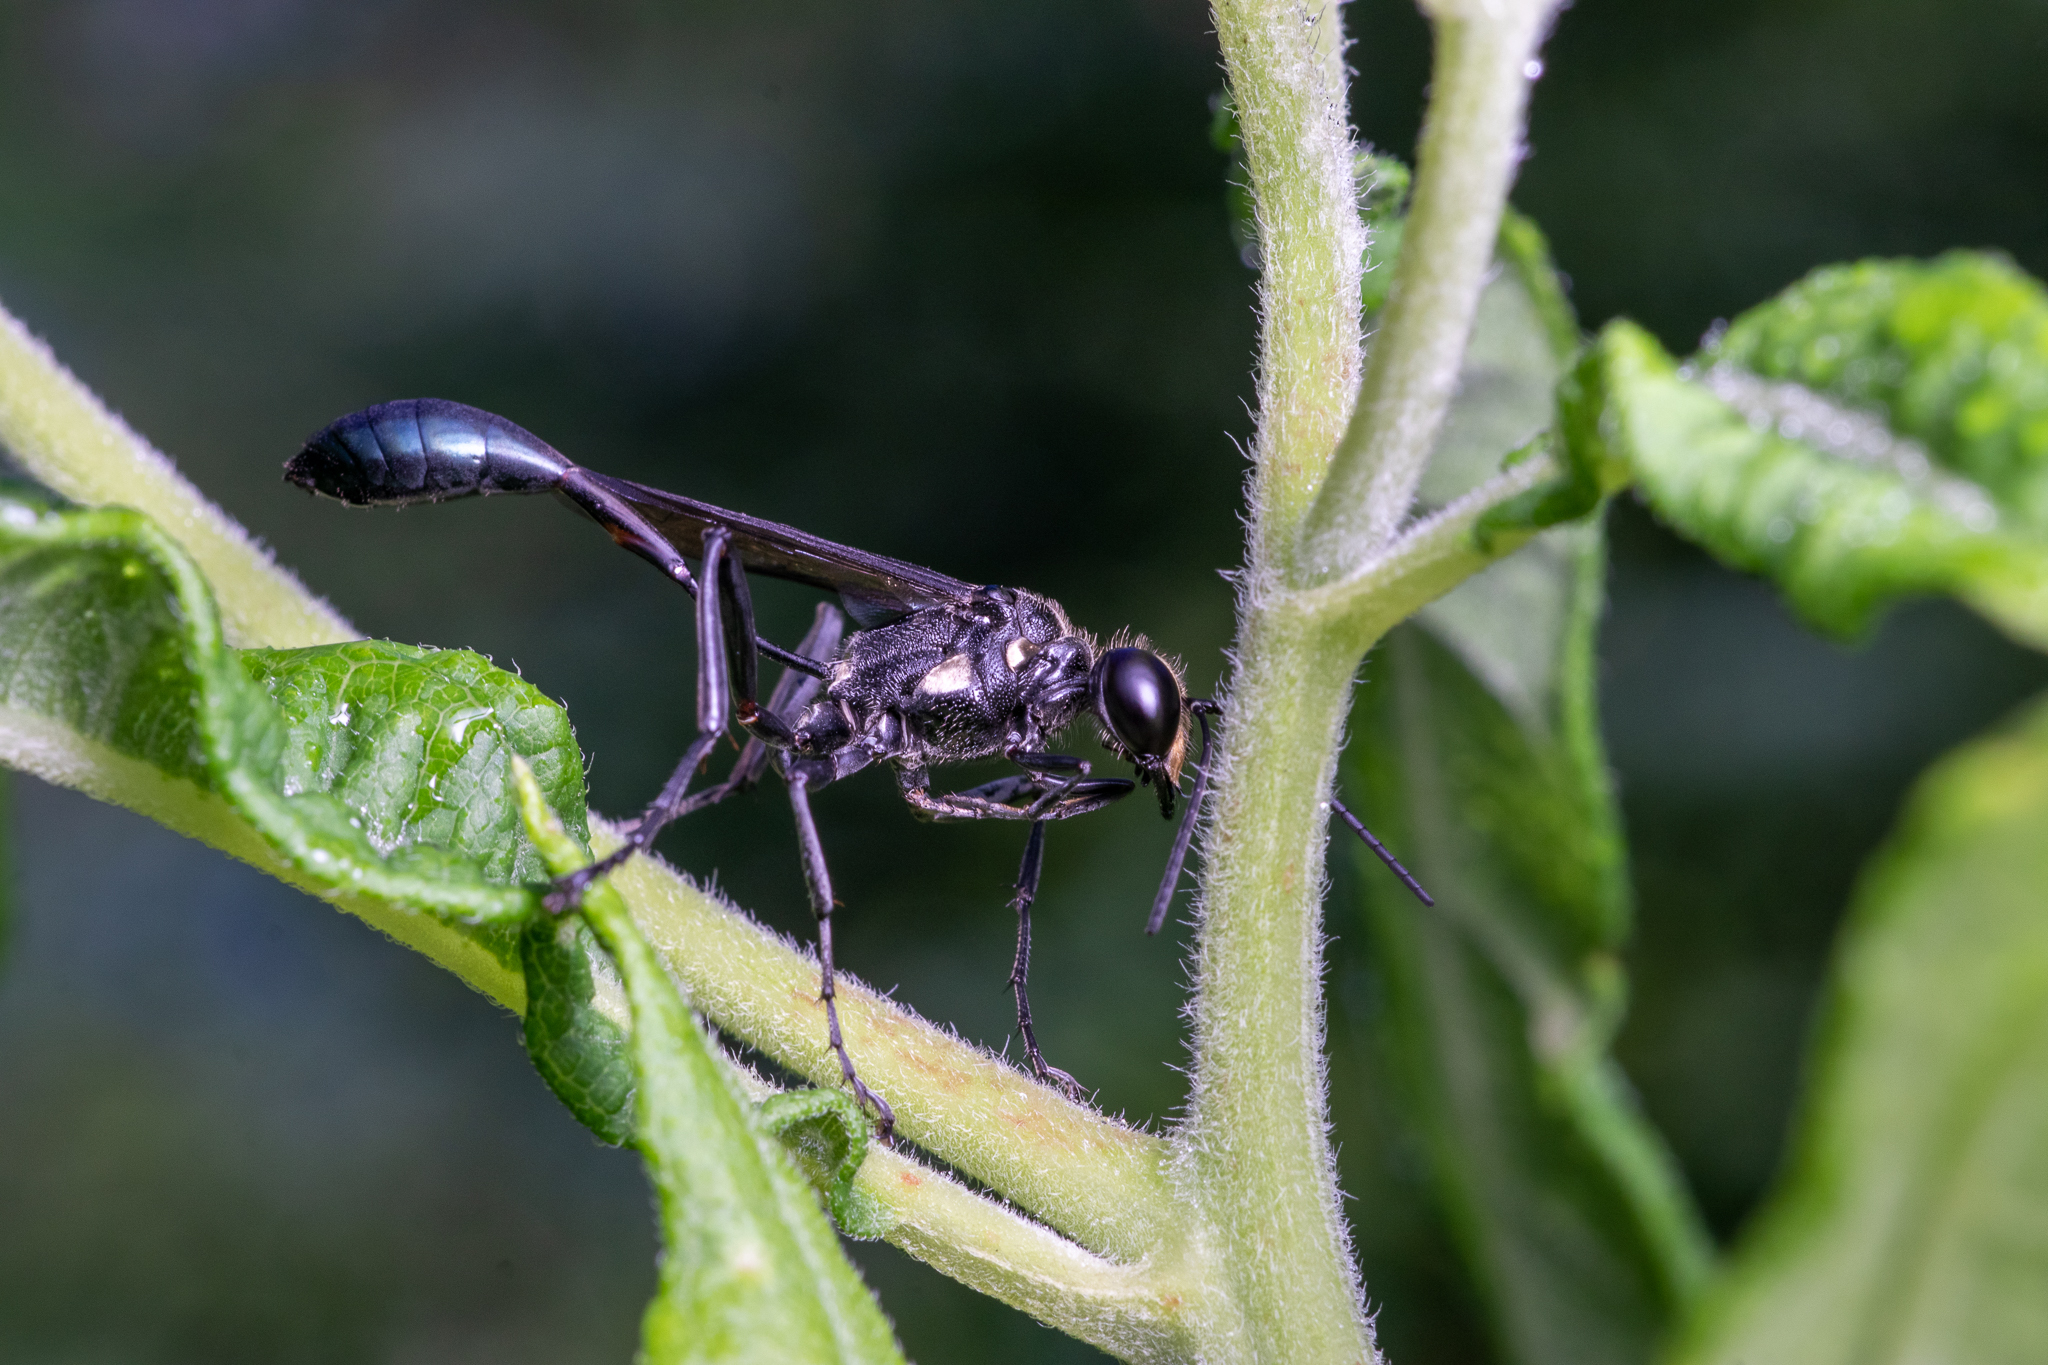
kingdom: Animalia
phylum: Arthropoda
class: Insecta
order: Hymenoptera
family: Sphecidae
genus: Eremnophila
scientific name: Eremnophila aureonotata
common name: Gold-marked thread-waisted wasp
